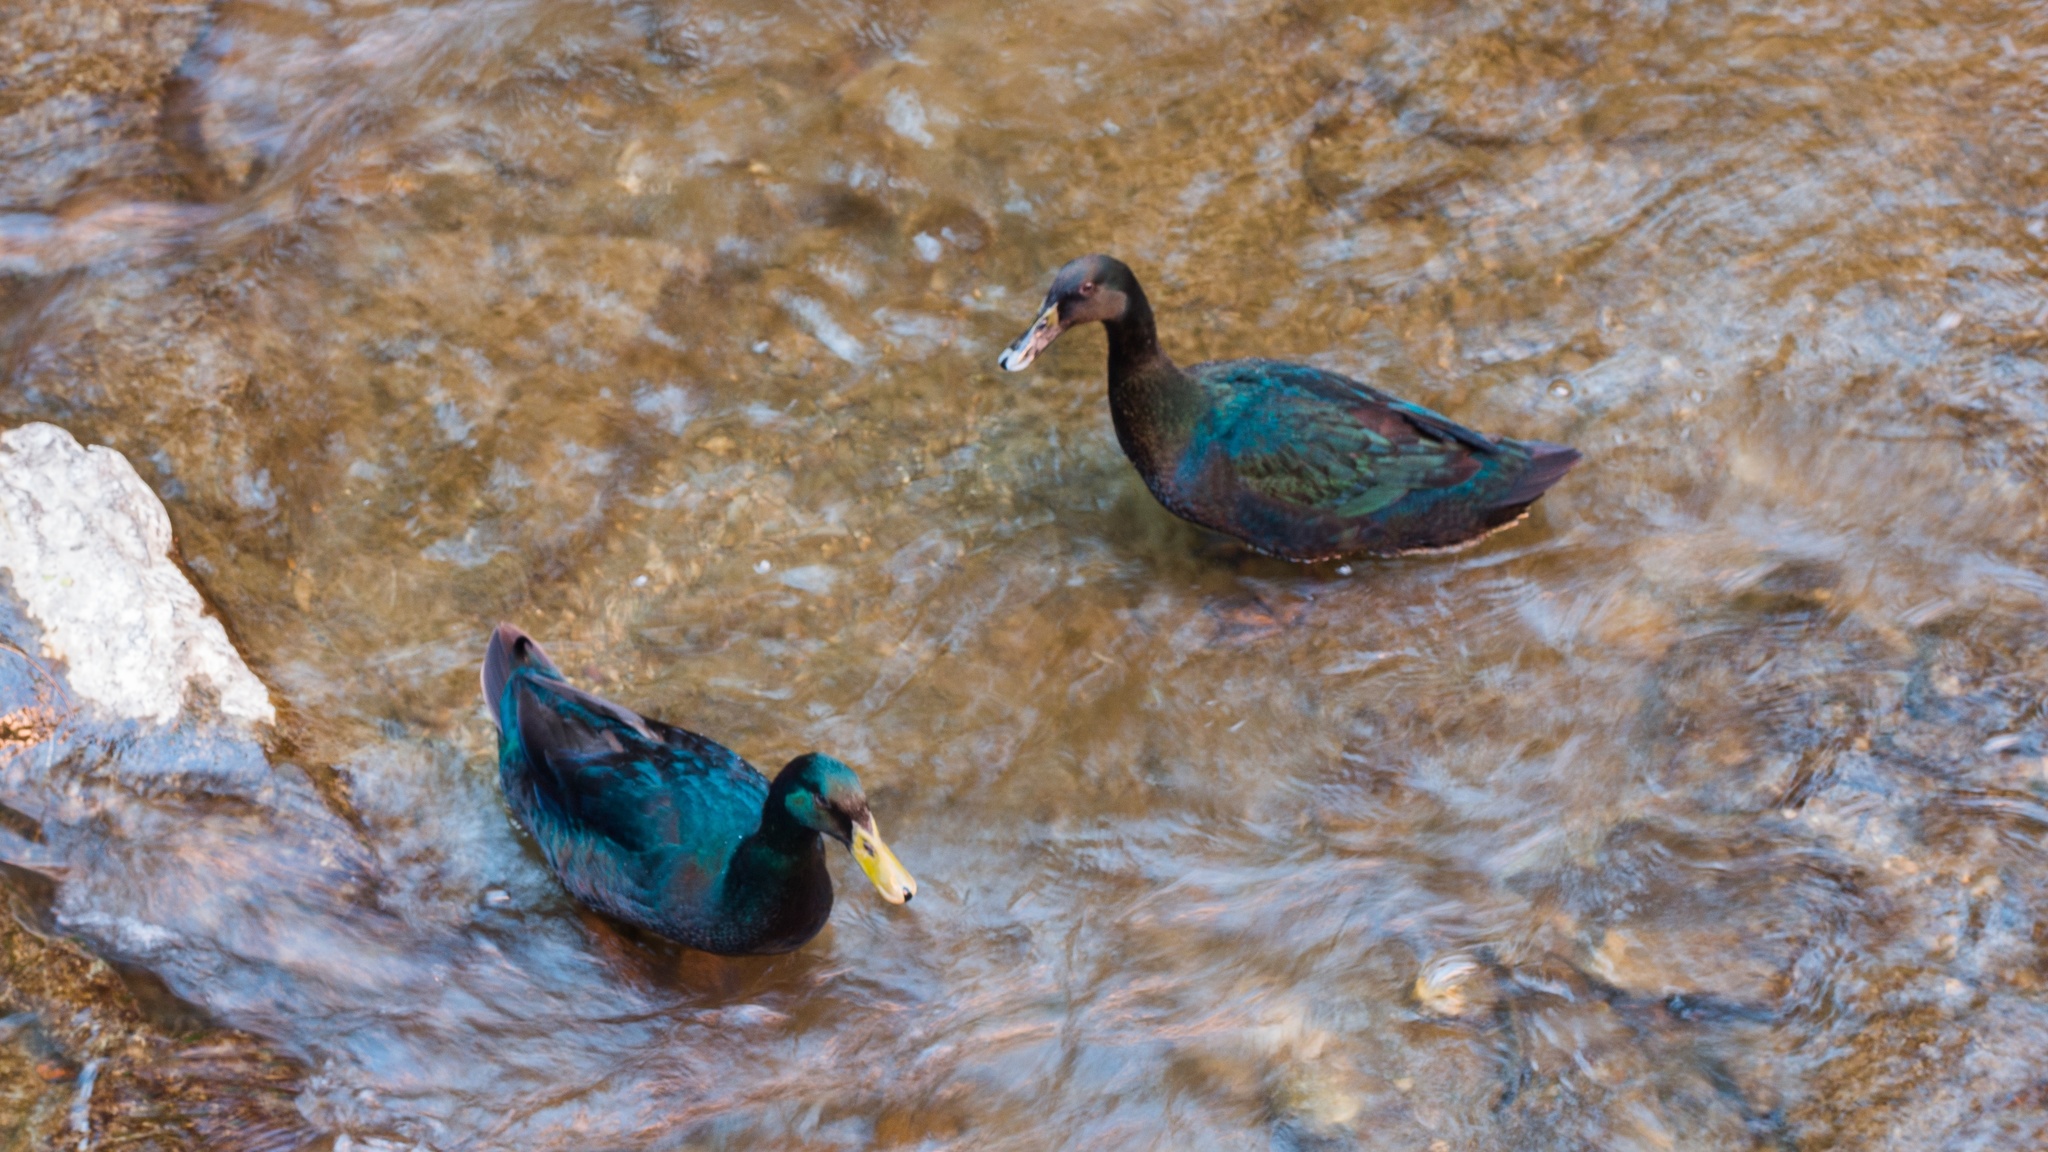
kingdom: Animalia
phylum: Chordata
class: Aves
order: Anseriformes
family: Anatidae
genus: Anas
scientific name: Anas platyrhynchos
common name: Mallard
